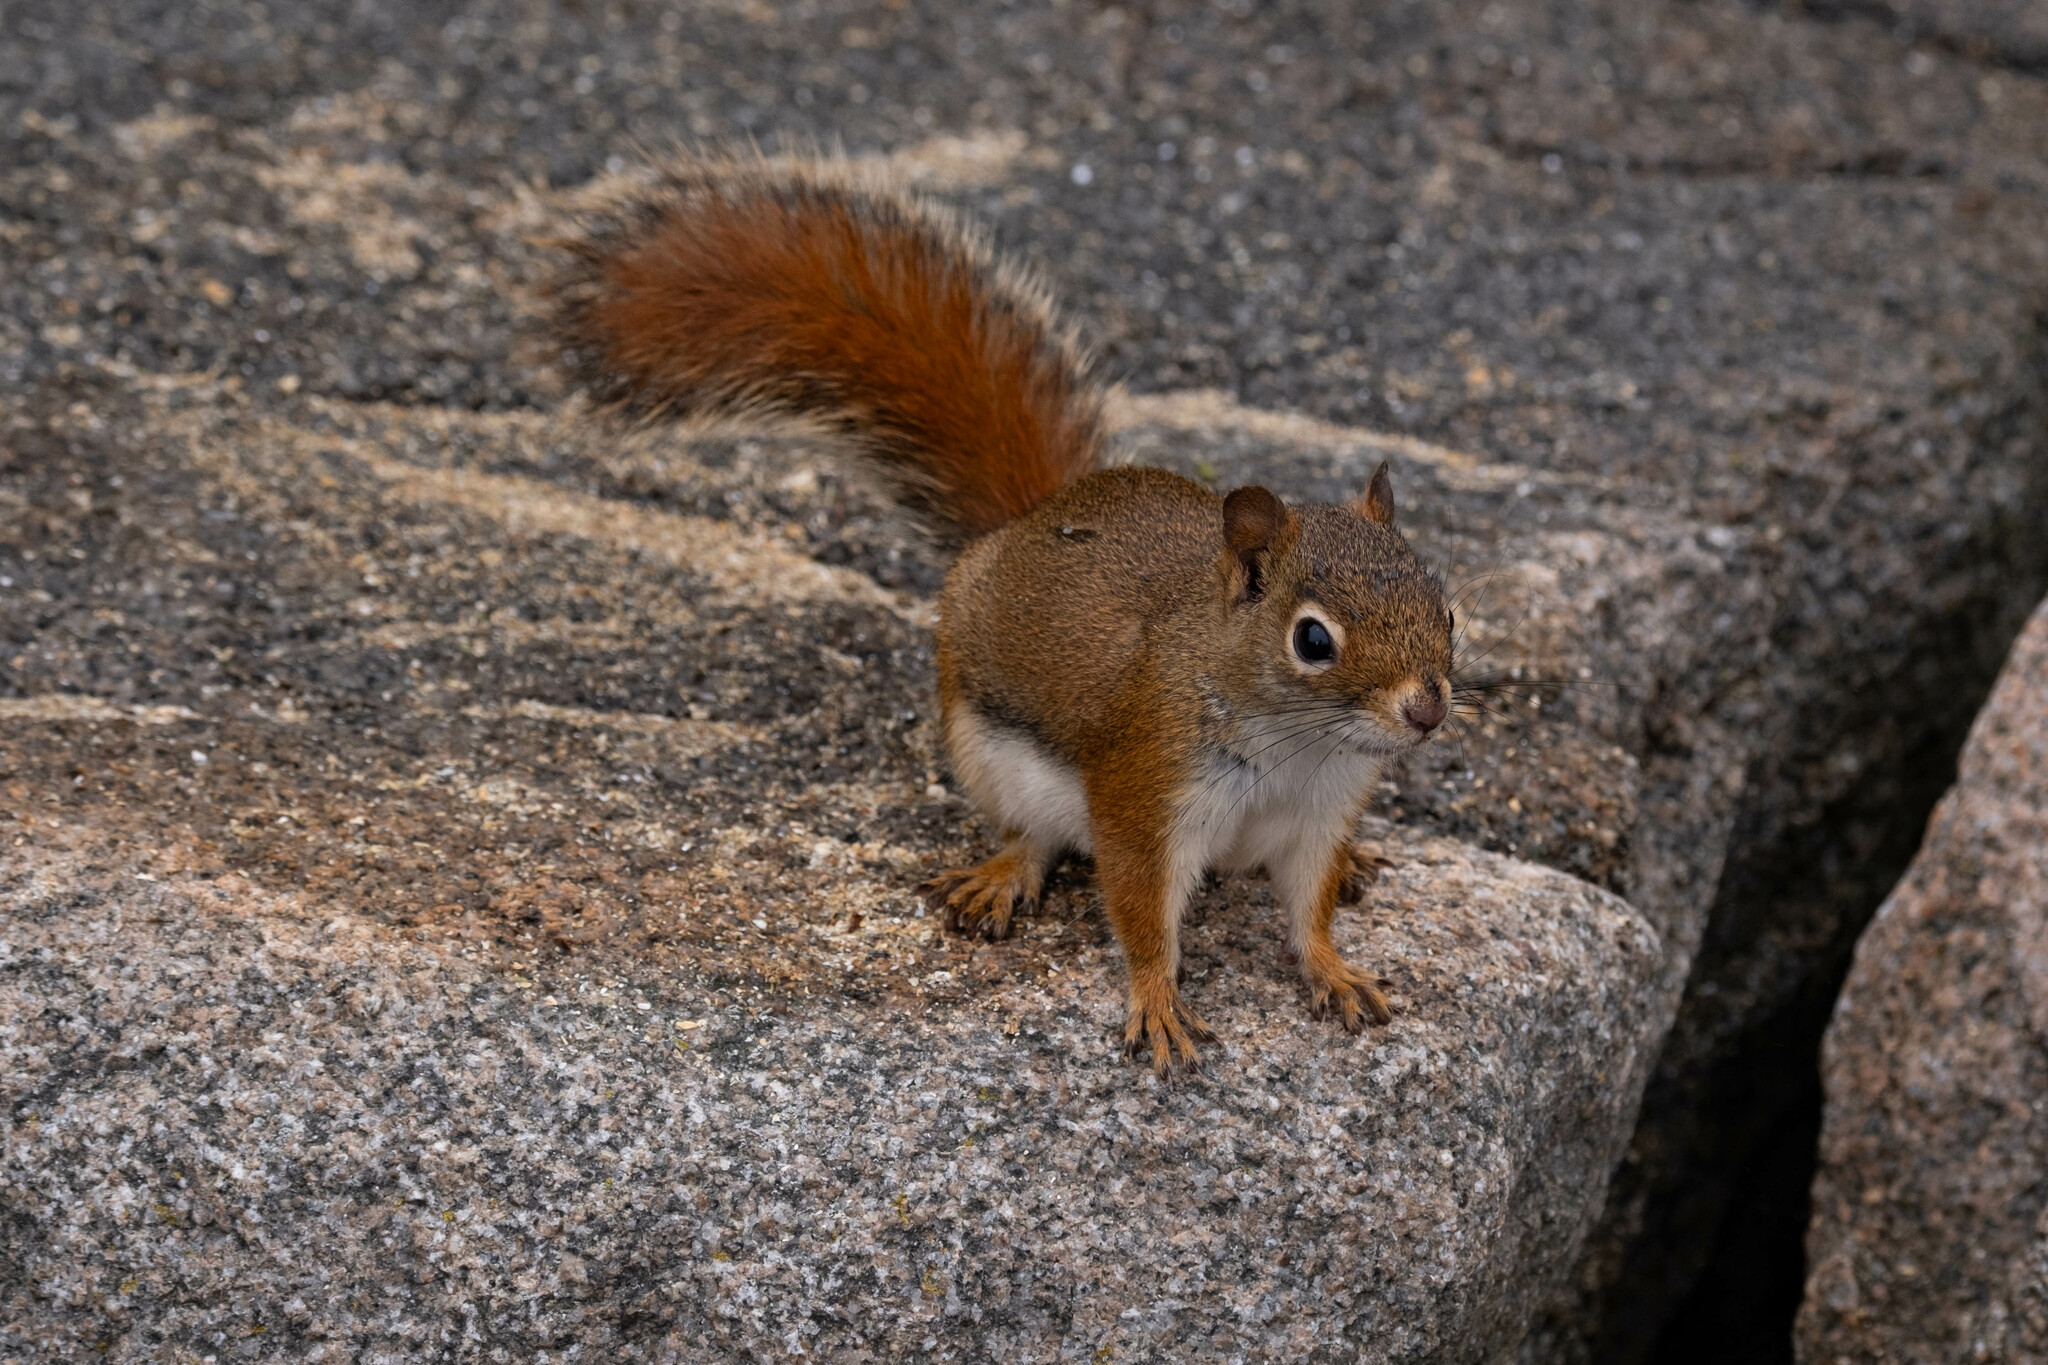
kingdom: Animalia
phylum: Chordata
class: Mammalia
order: Rodentia
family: Sciuridae
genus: Tamiasciurus
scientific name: Tamiasciurus hudsonicus
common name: Red squirrel
